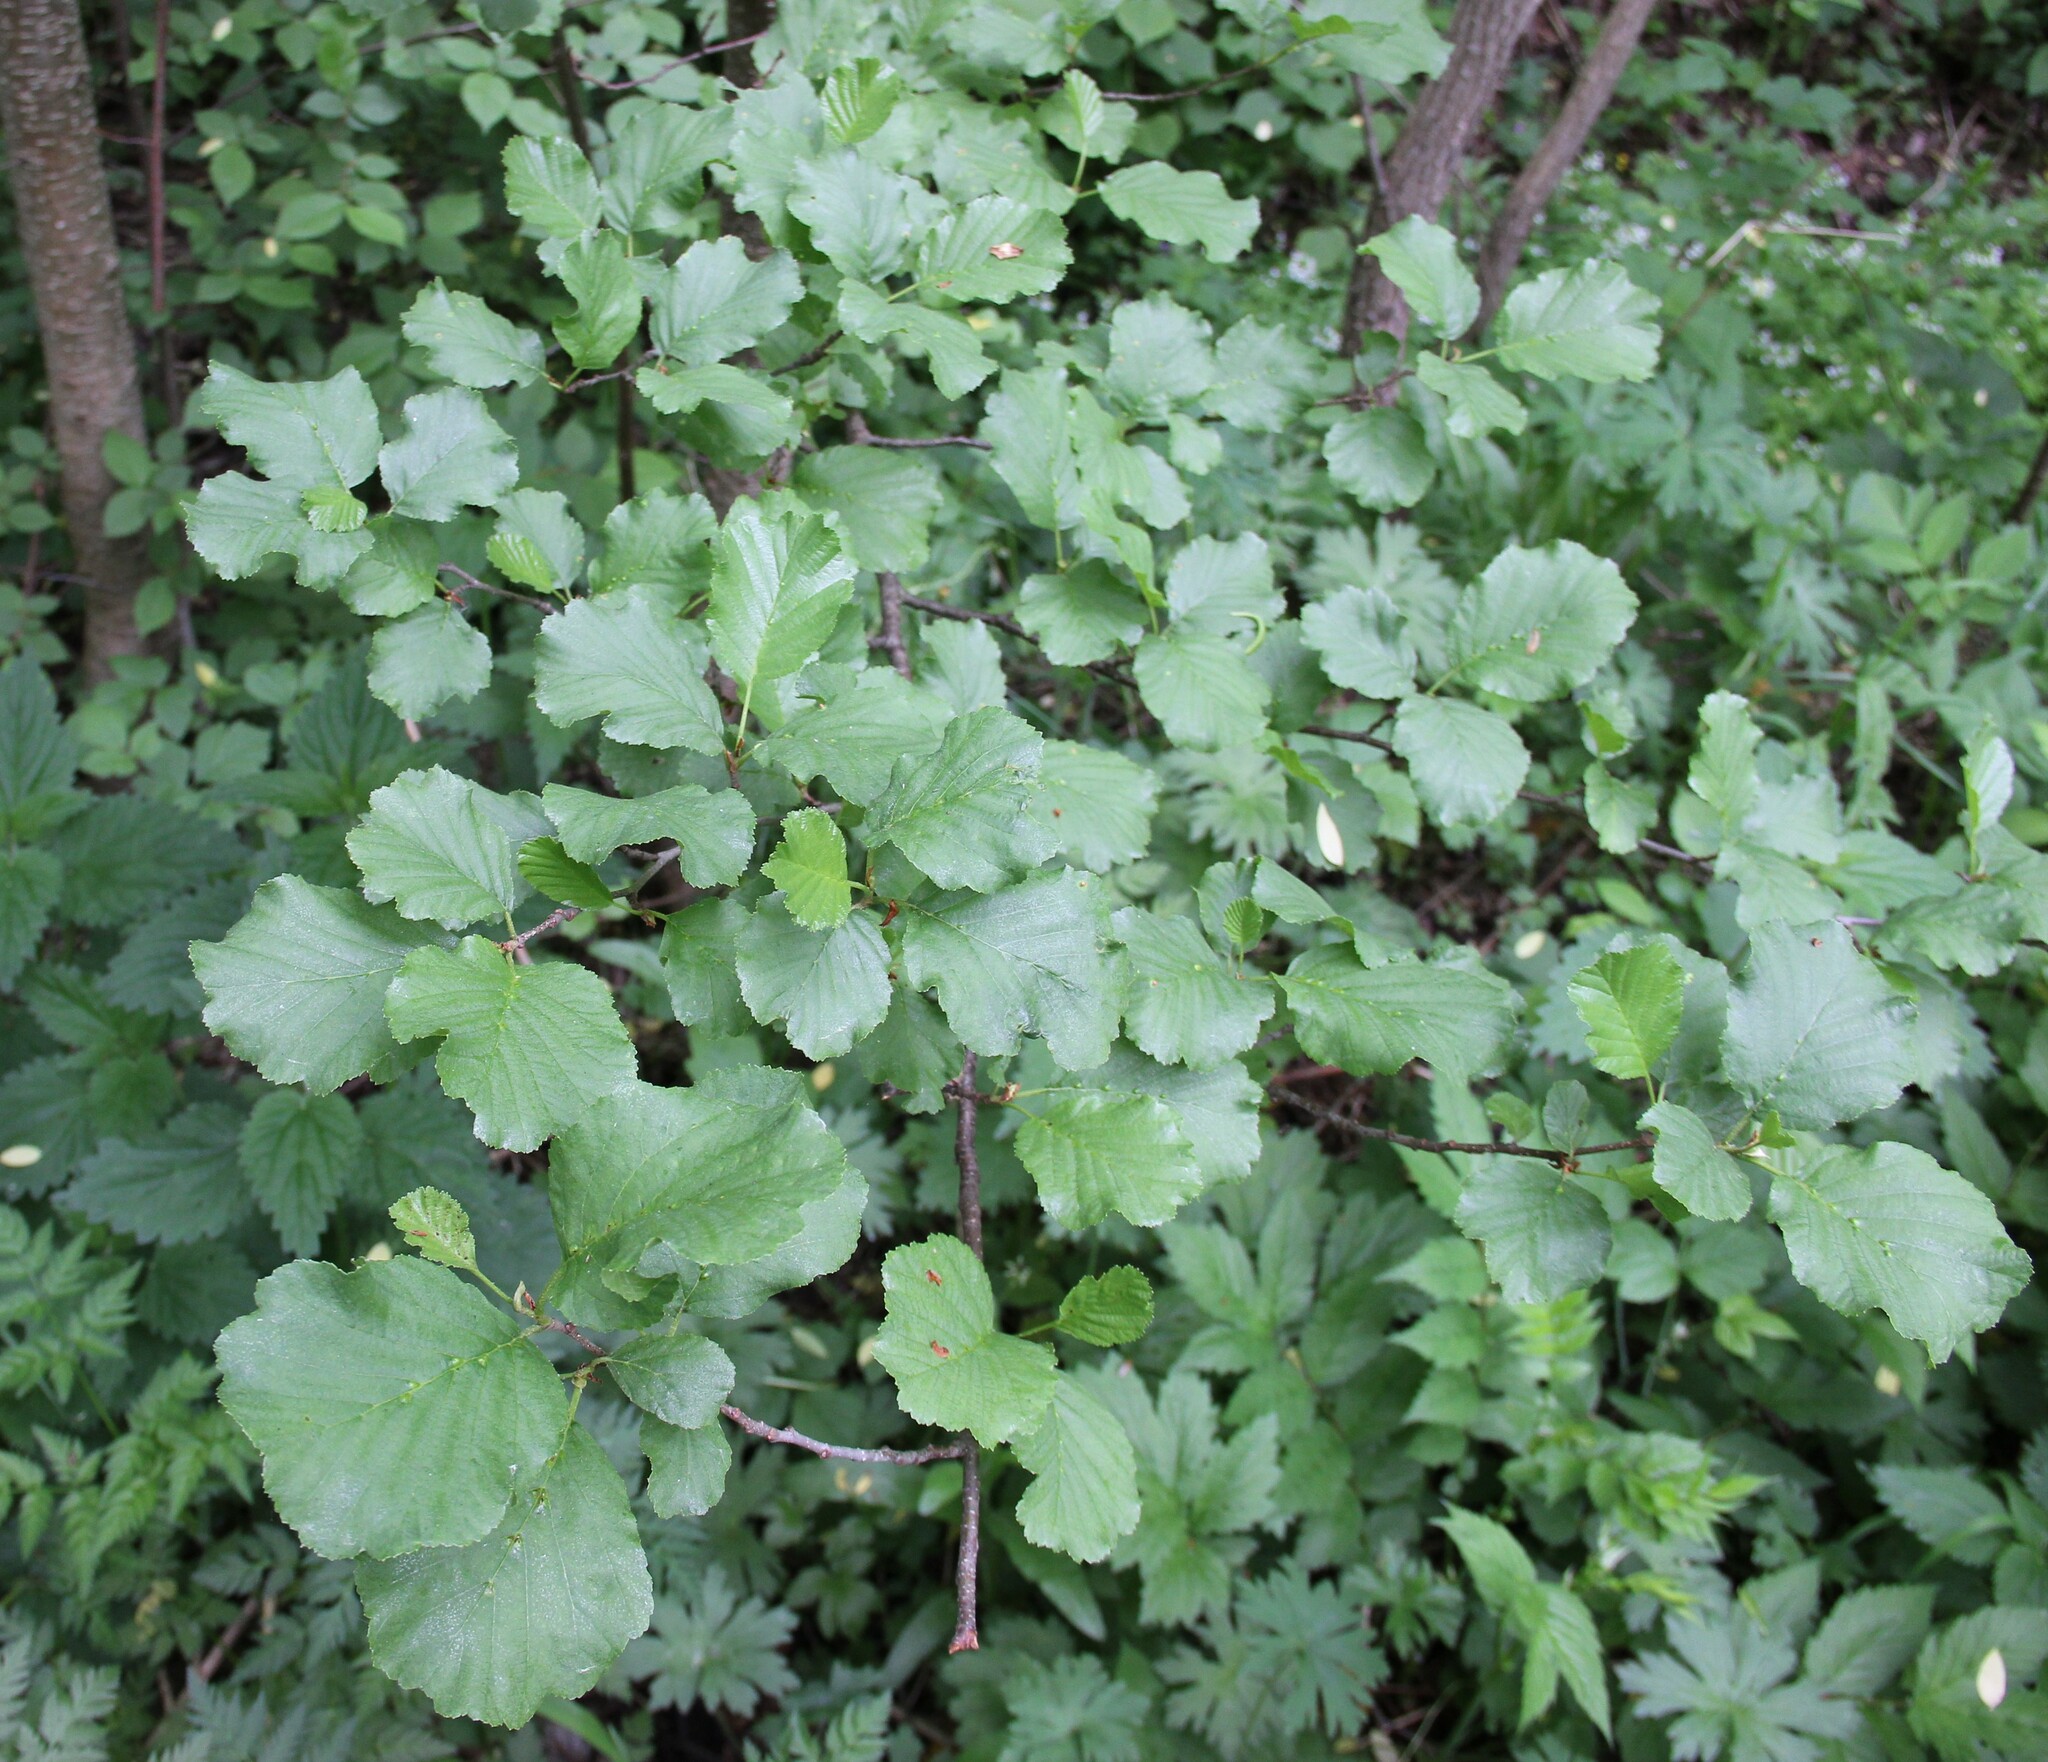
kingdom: Plantae
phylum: Tracheophyta
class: Magnoliopsida
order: Fagales
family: Betulaceae
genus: Alnus
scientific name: Alnus glutinosa
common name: Black alder
